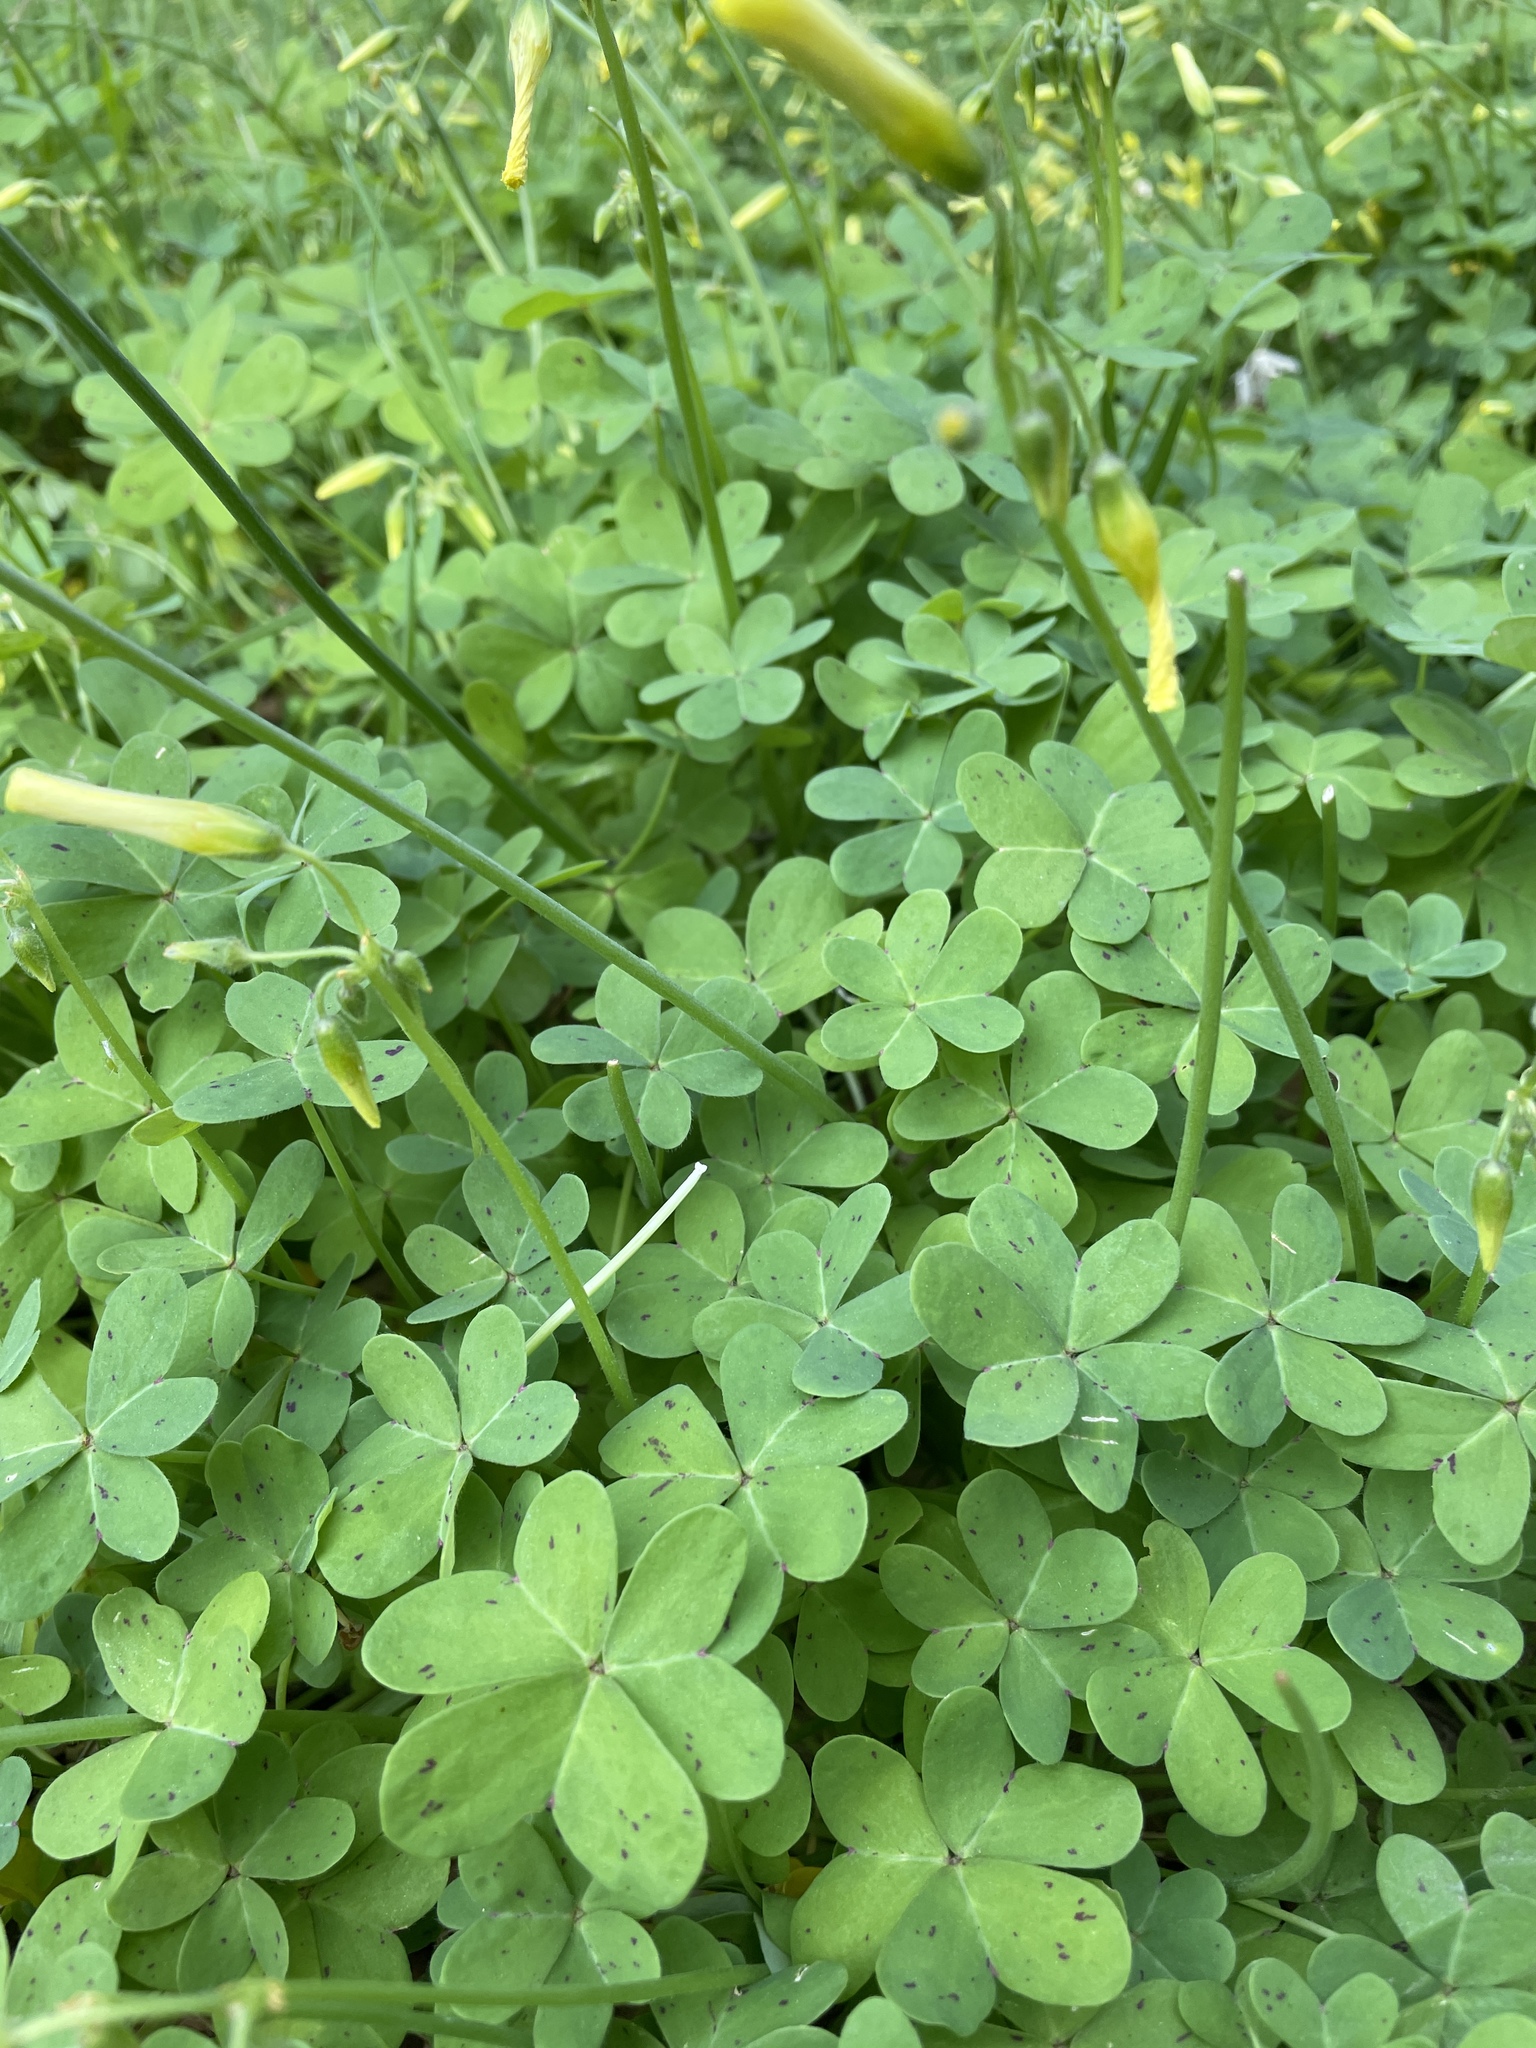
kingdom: Plantae
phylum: Tracheophyta
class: Magnoliopsida
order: Oxalidales
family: Oxalidaceae
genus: Oxalis
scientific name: Oxalis pes-caprae
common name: Bermuda-buttercup
